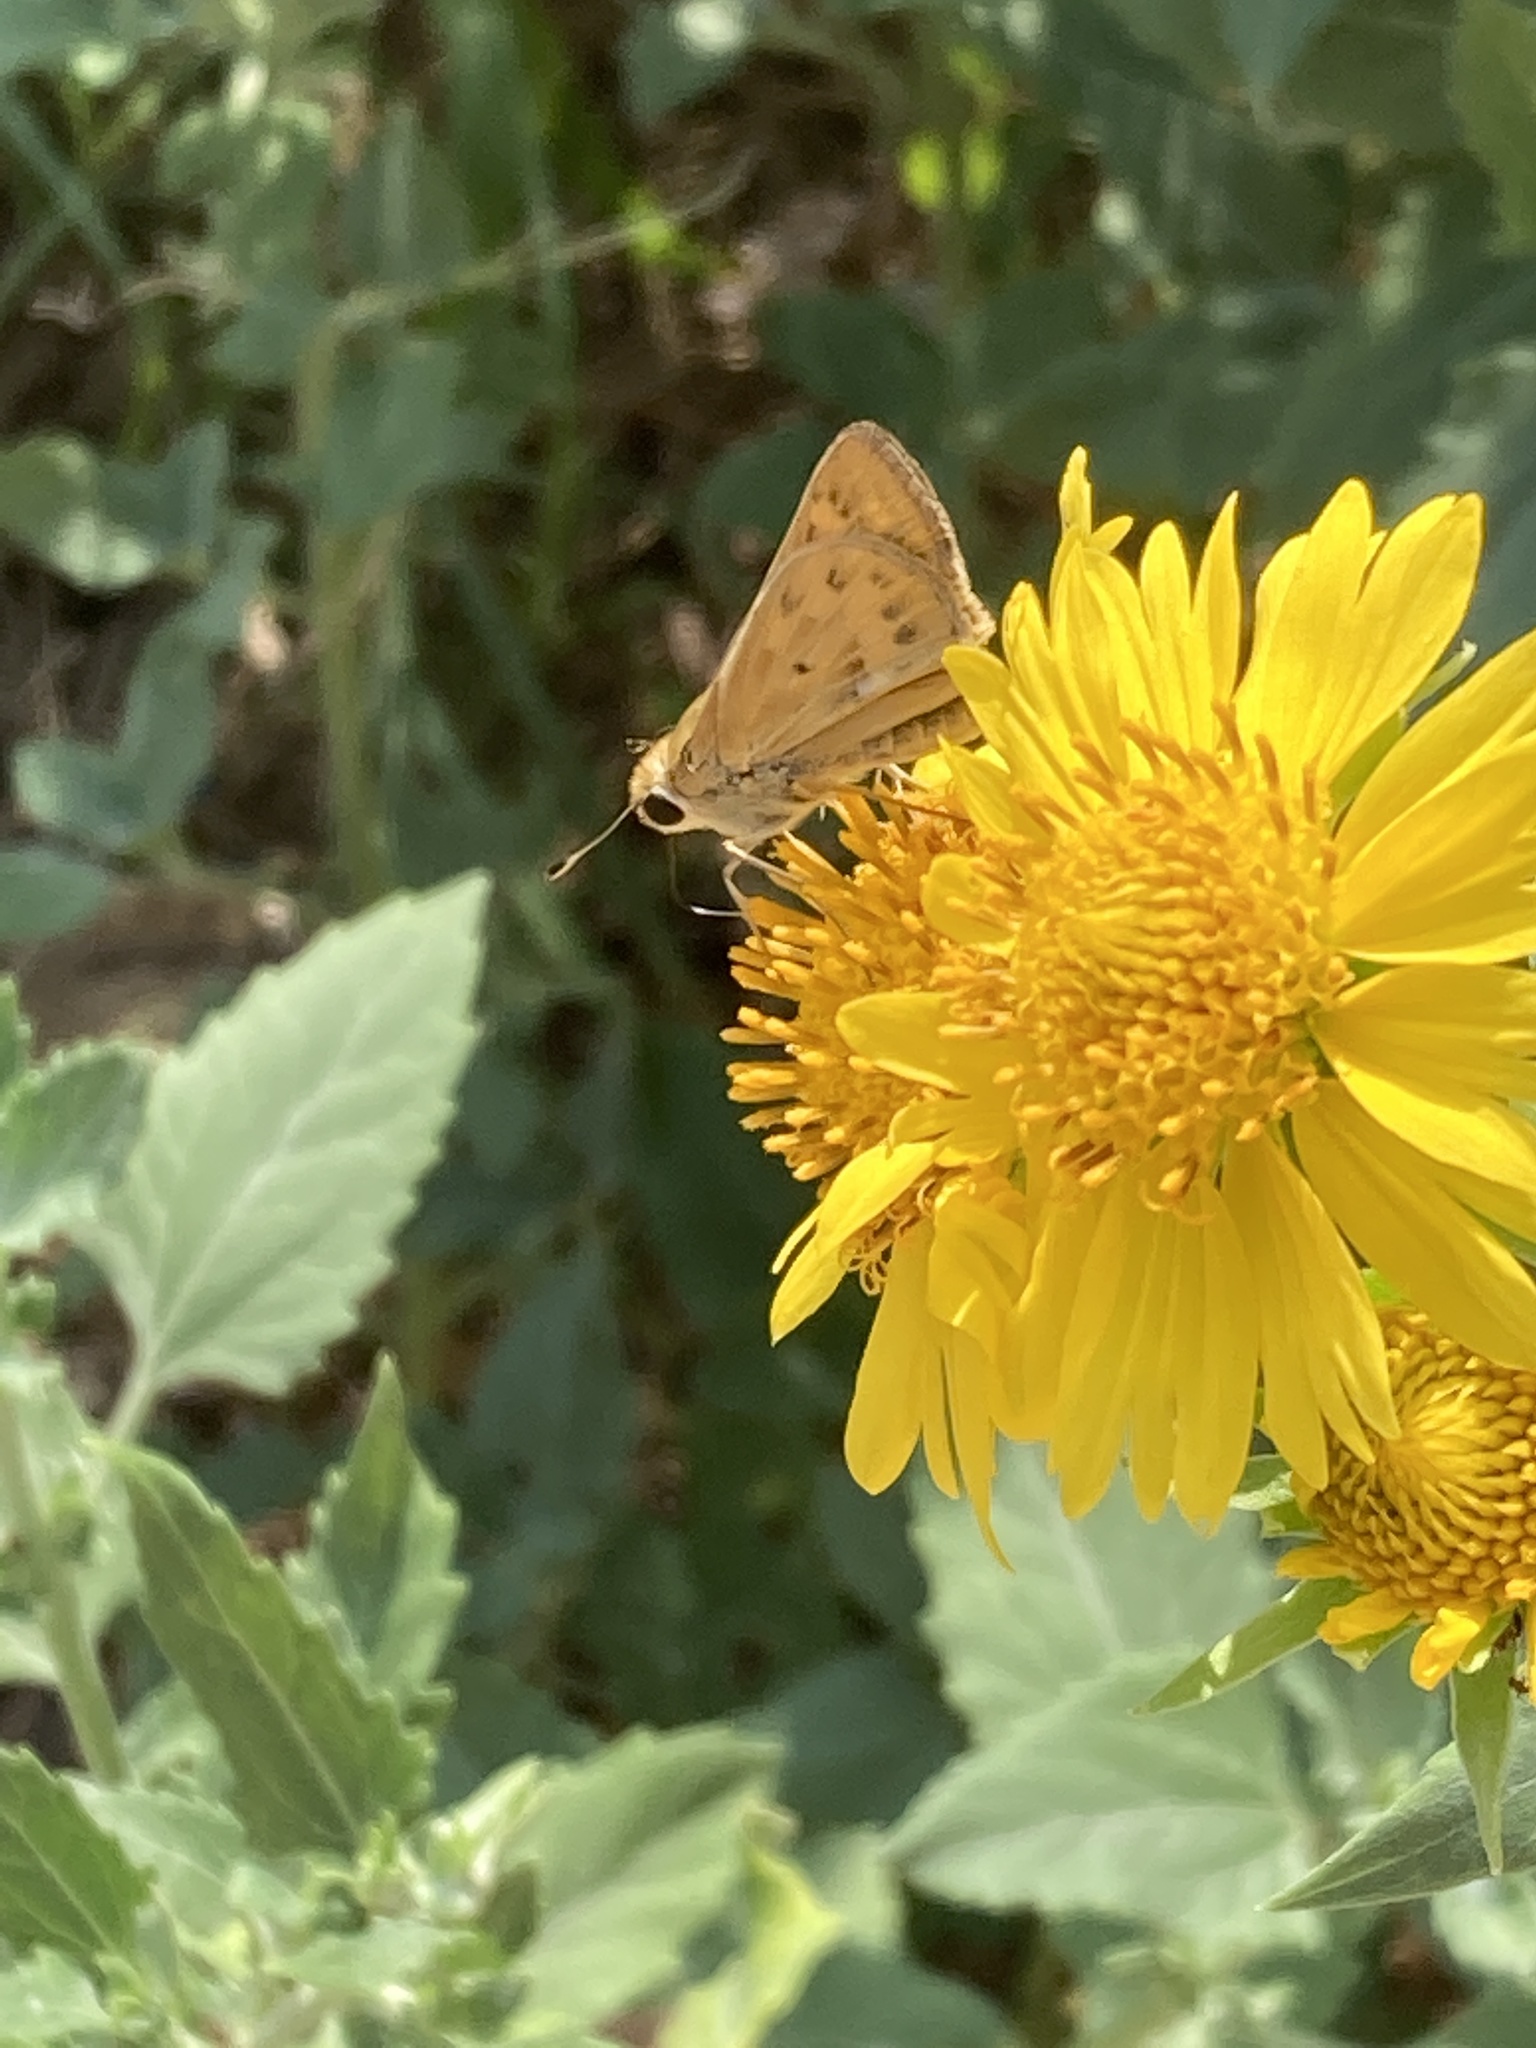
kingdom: Animalia
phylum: Arthropoda
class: Insecta
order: Lepidoptera
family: Hesperiidae
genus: Hylephila
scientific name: Hylephila phyleus
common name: Fiery skipper
